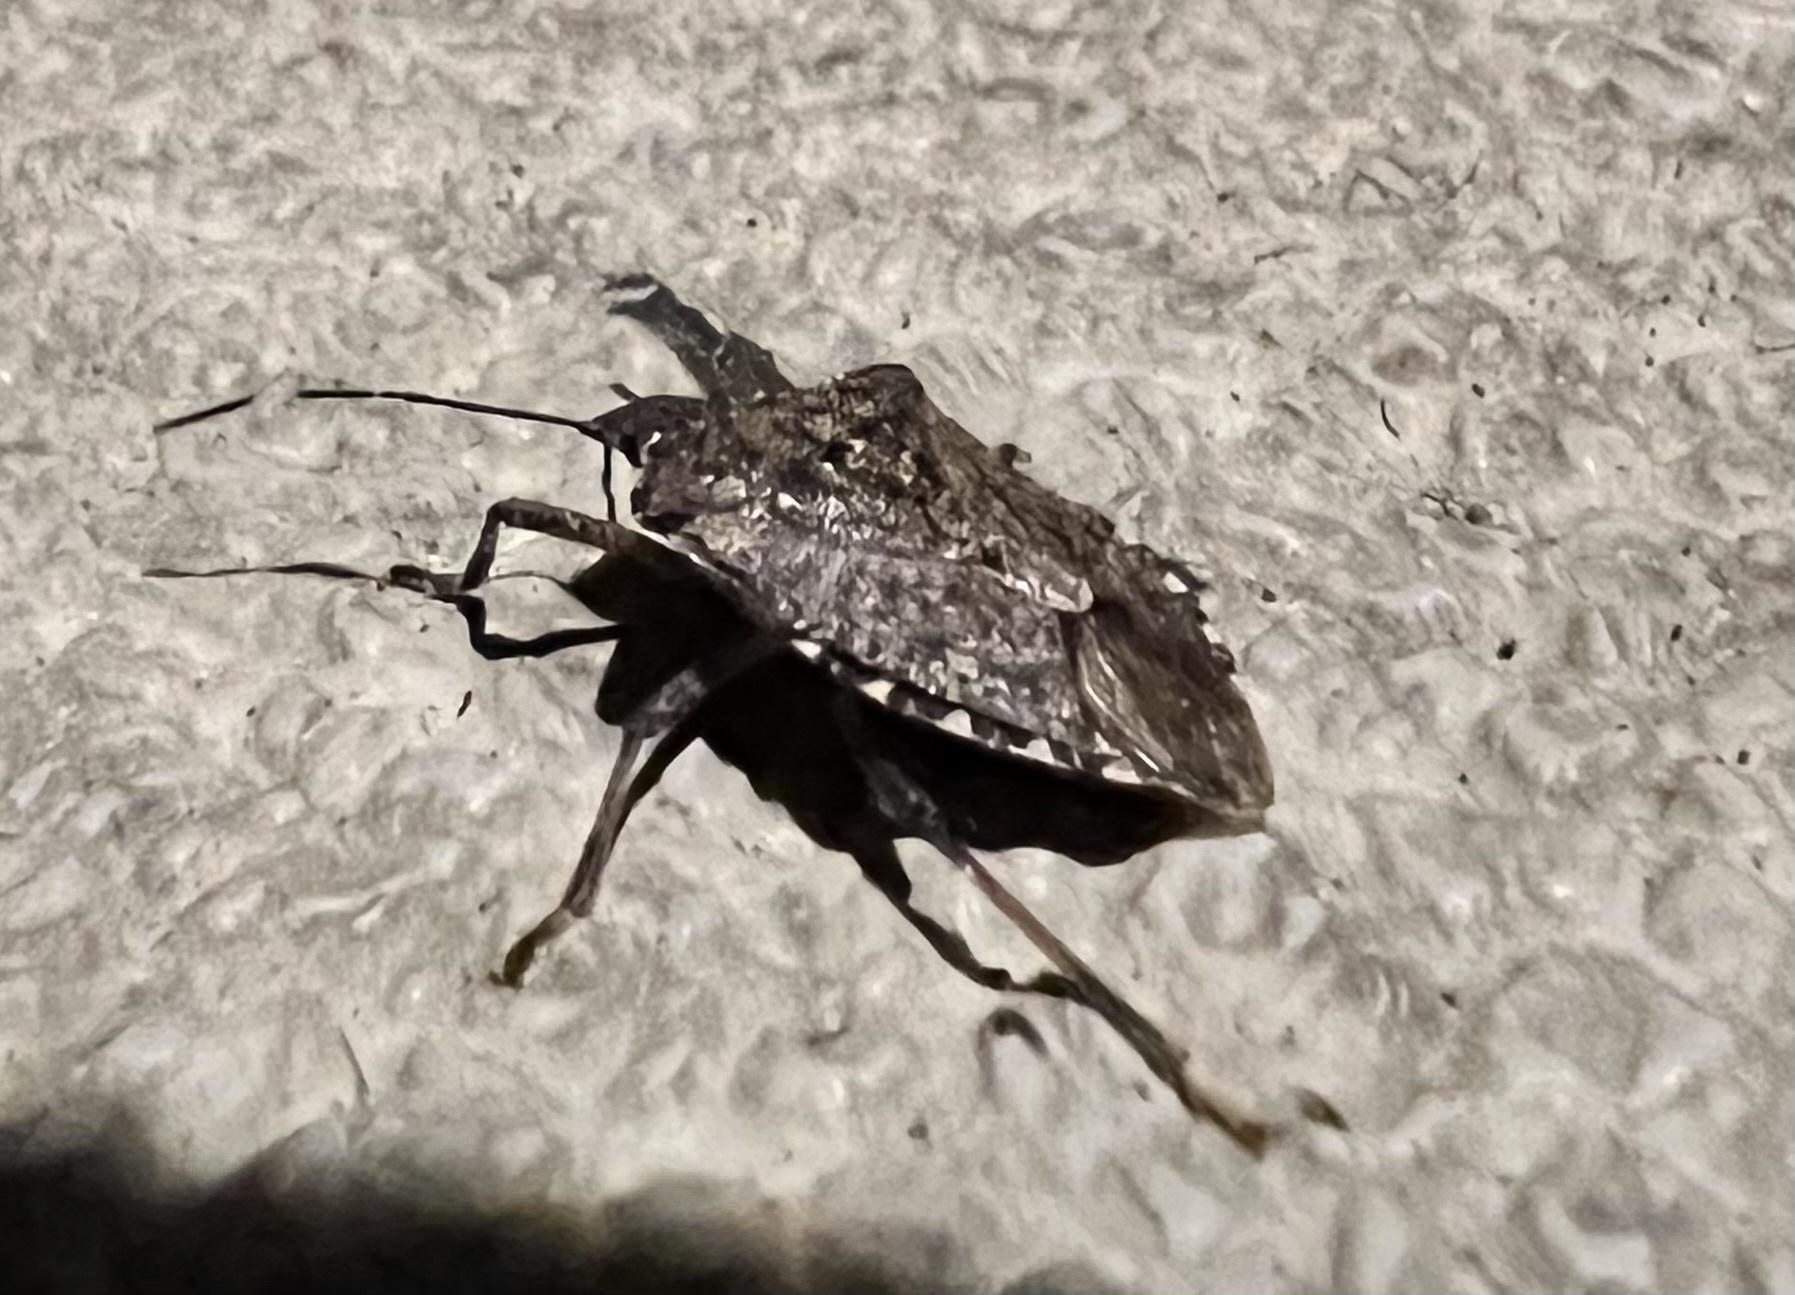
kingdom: Animalia
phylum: Arthropoda
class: Insecta
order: Hemiptera
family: Pentatomidae
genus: Halyomorpha
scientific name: Halyomorpha halys
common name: Brown marmorated stink bug
